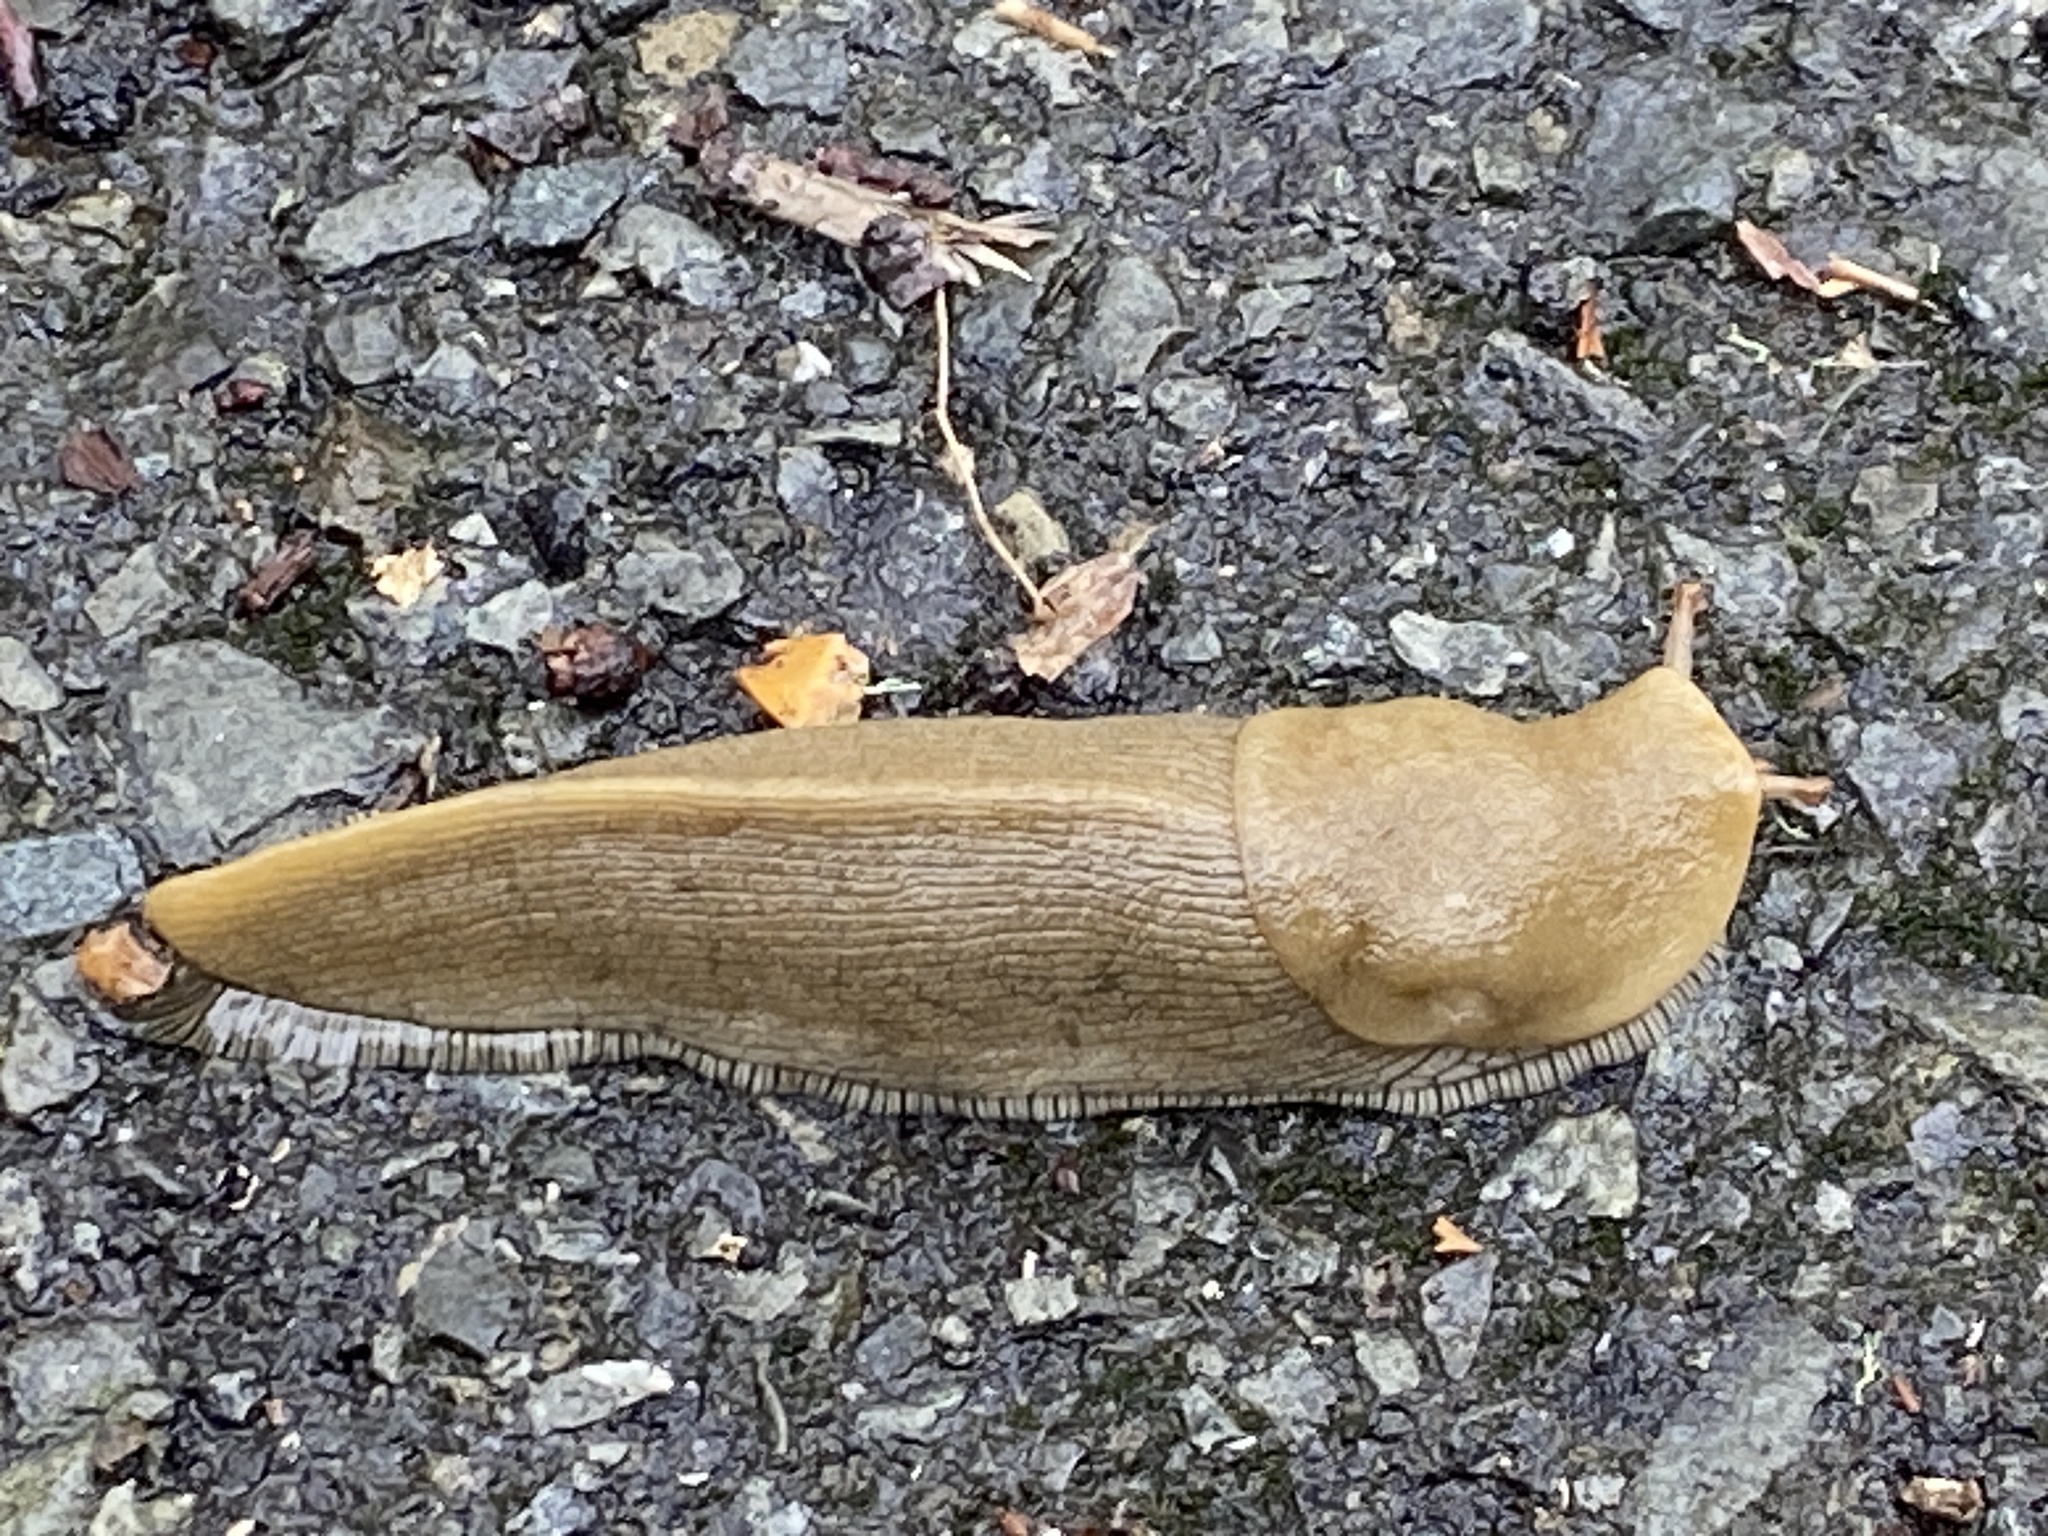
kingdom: Animalia
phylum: Mollusca
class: Gastropoda
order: Stylommatophora
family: Ariolimacidae
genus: Ariolimax
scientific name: Ariolimax buttoni
